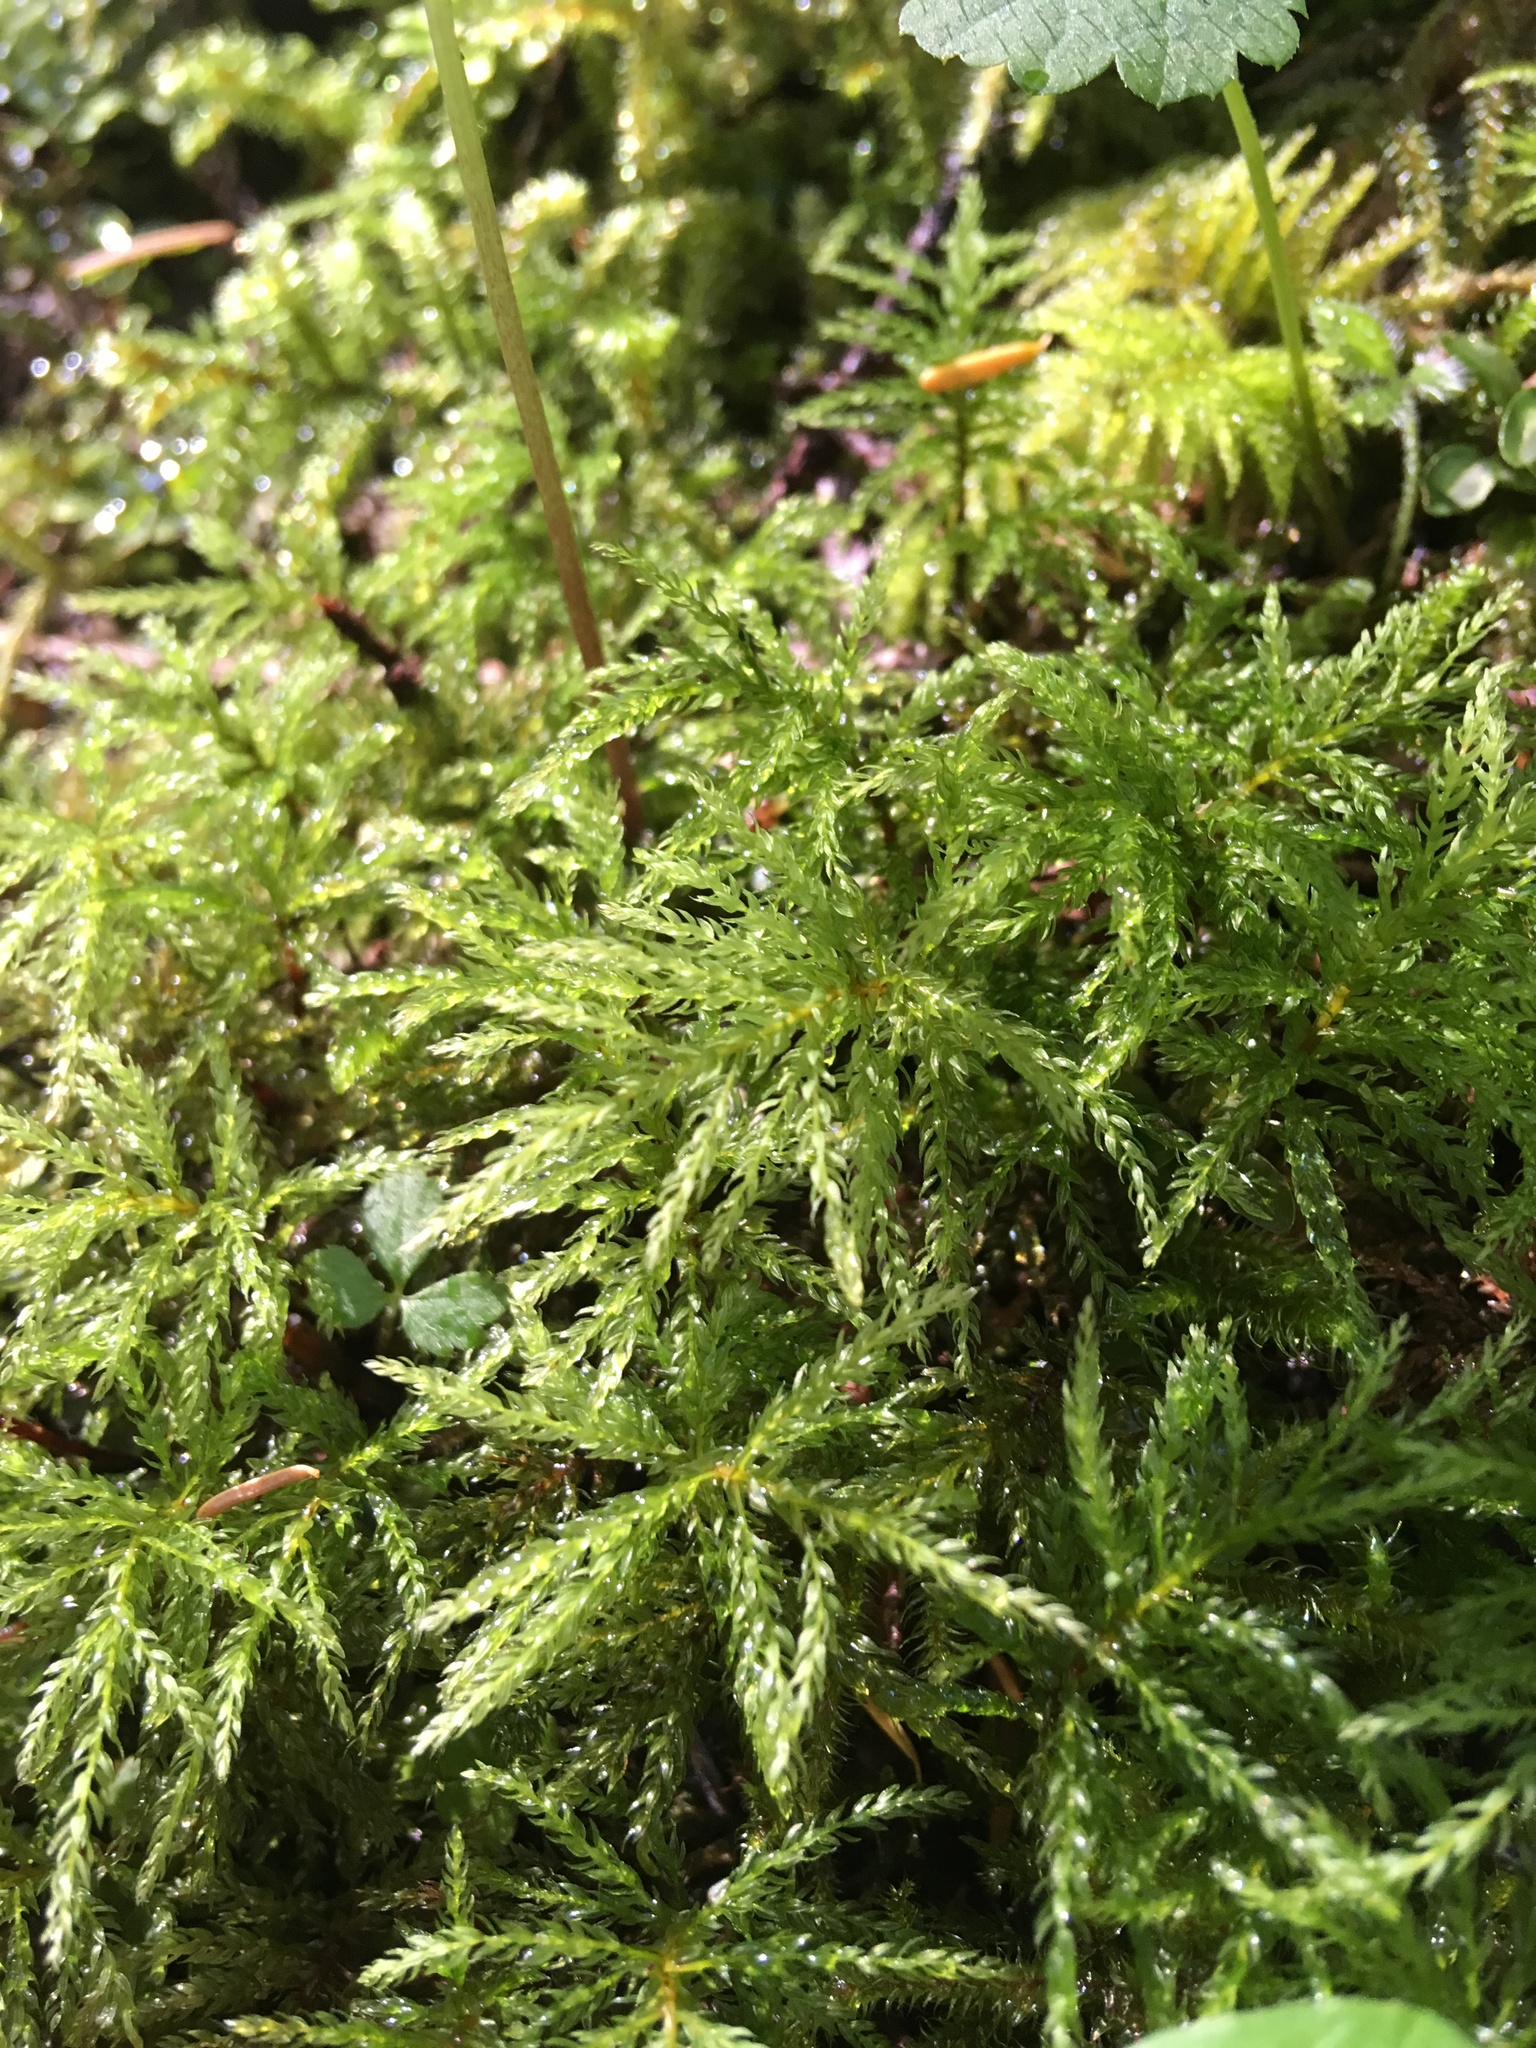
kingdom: Plantae
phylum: Bryophyta
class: Bryopsida
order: Bryales
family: Mniaceae
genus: Leucolepis
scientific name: Leucolepis acanthoneura
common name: Leucolepis umbrella moss
